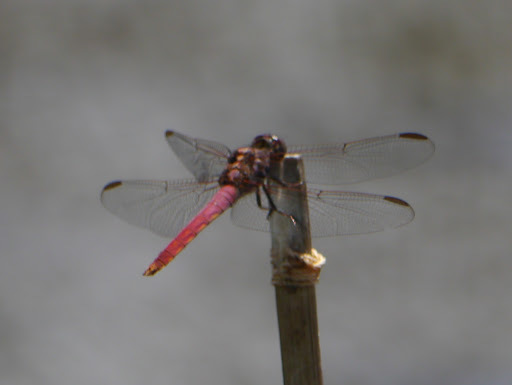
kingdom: Animalia
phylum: Arthropoda
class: Insecta
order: Odonata
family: Libellulidae
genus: Orthemis
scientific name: Orthemis ferruginea
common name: Roseate skimmer
